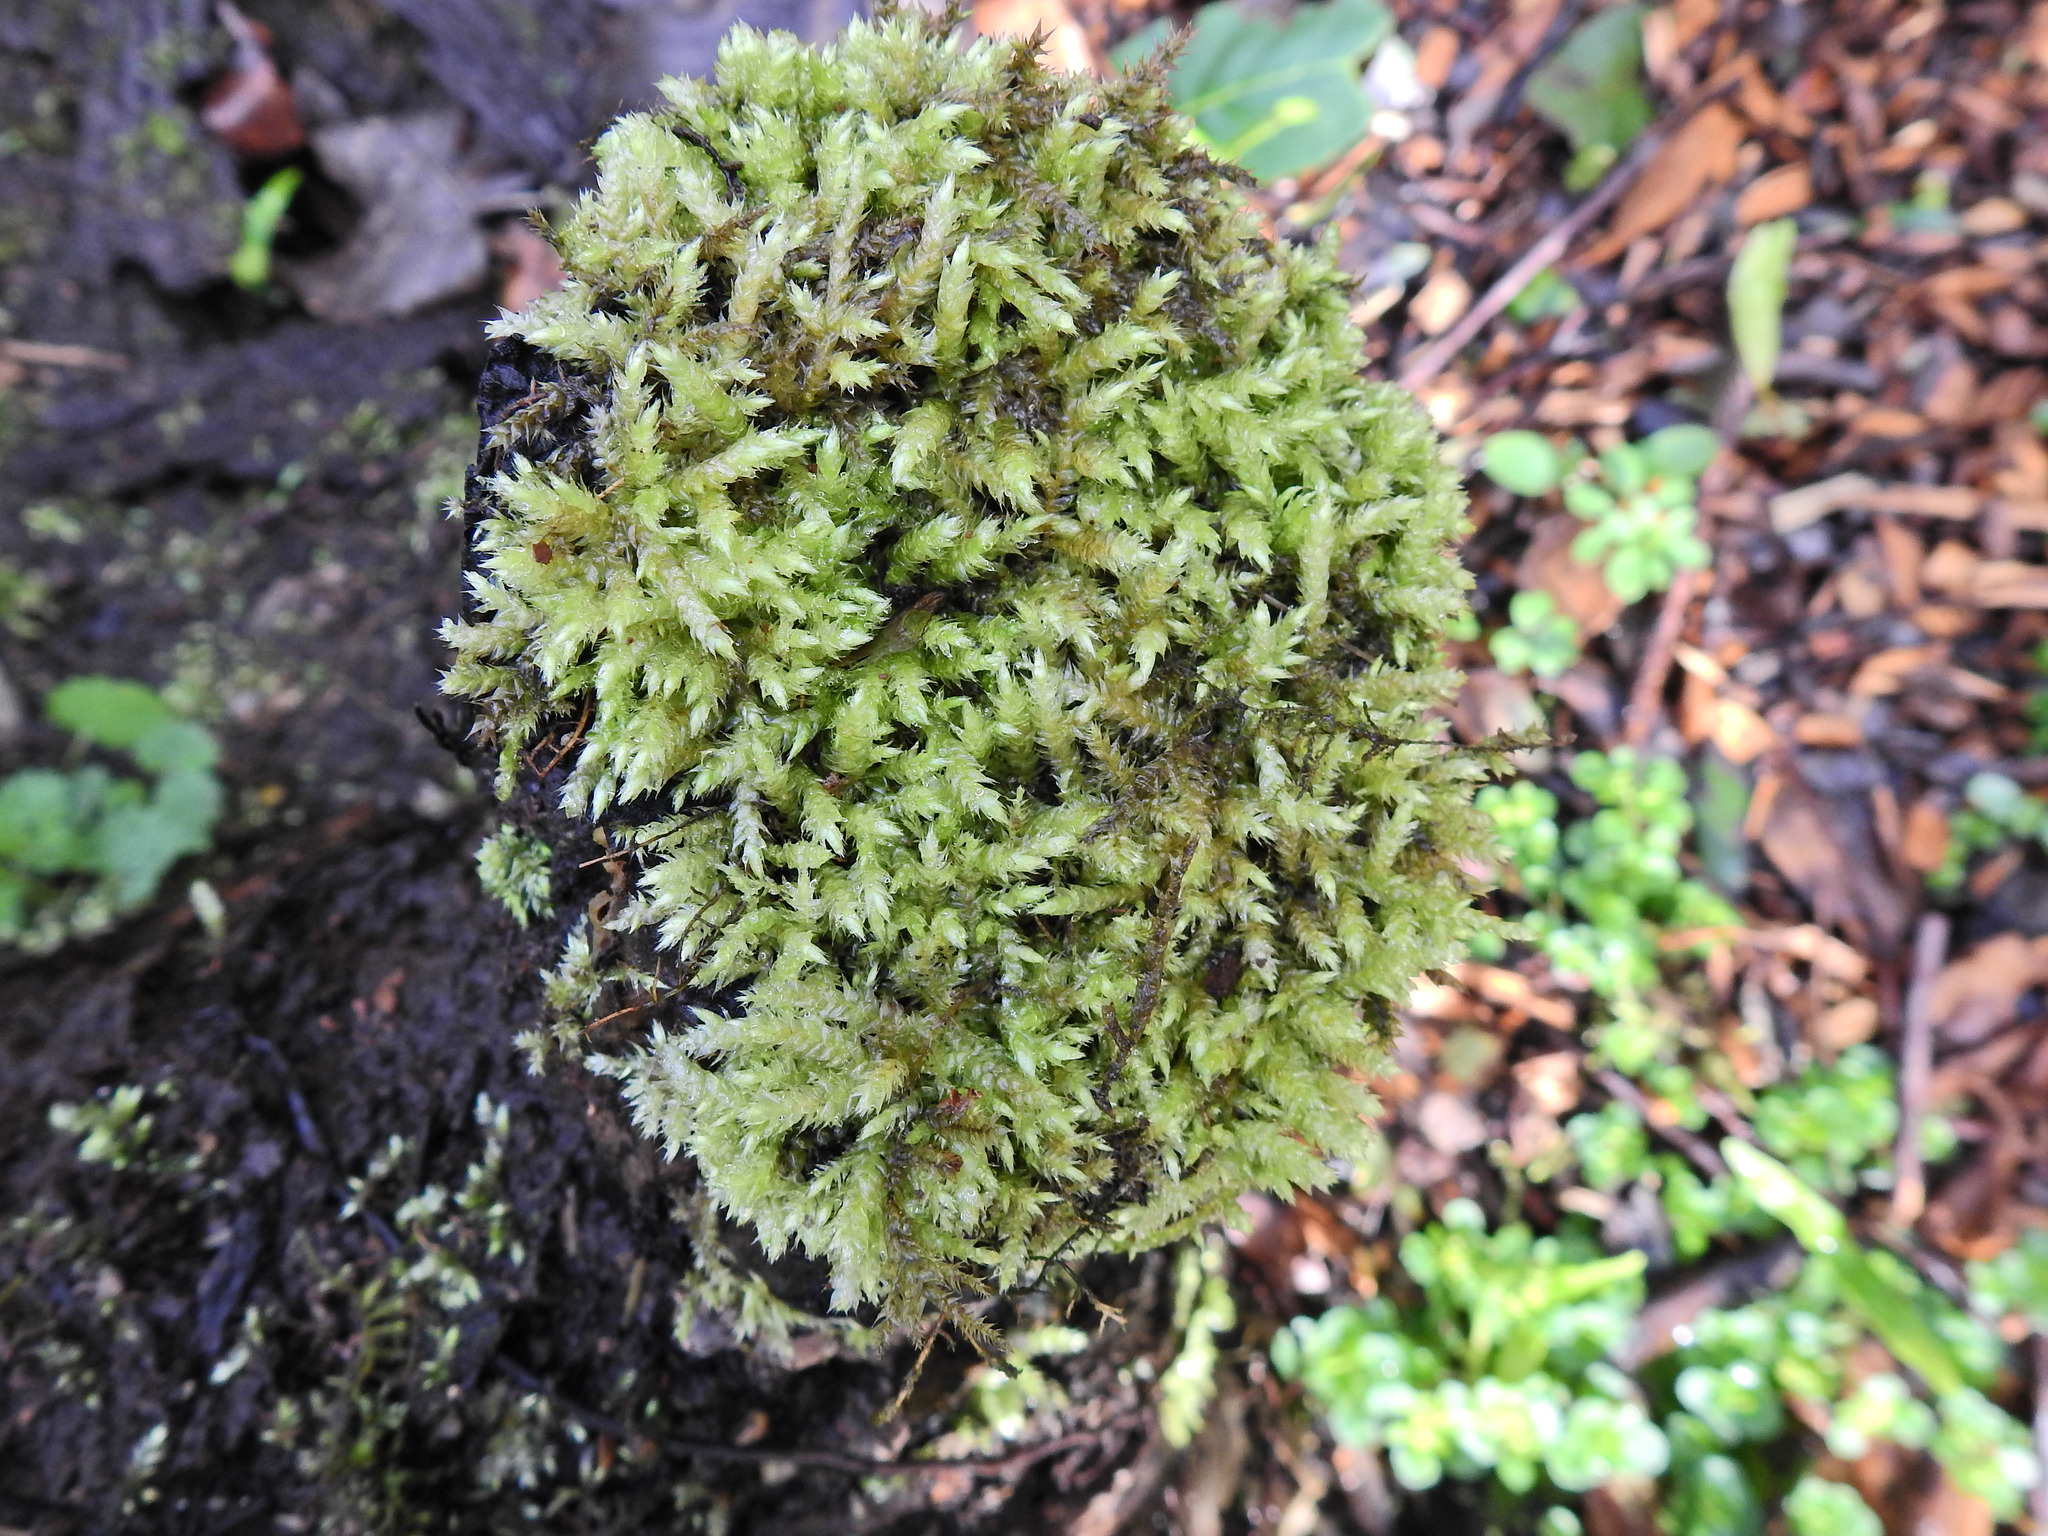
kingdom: Plantae
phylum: Bryophyta
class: Bryopsida
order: Hypnales
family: Brachytheciaceae
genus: Brachythecium
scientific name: Brachythecium rutabulum
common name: Rough-stalked feather-moss
